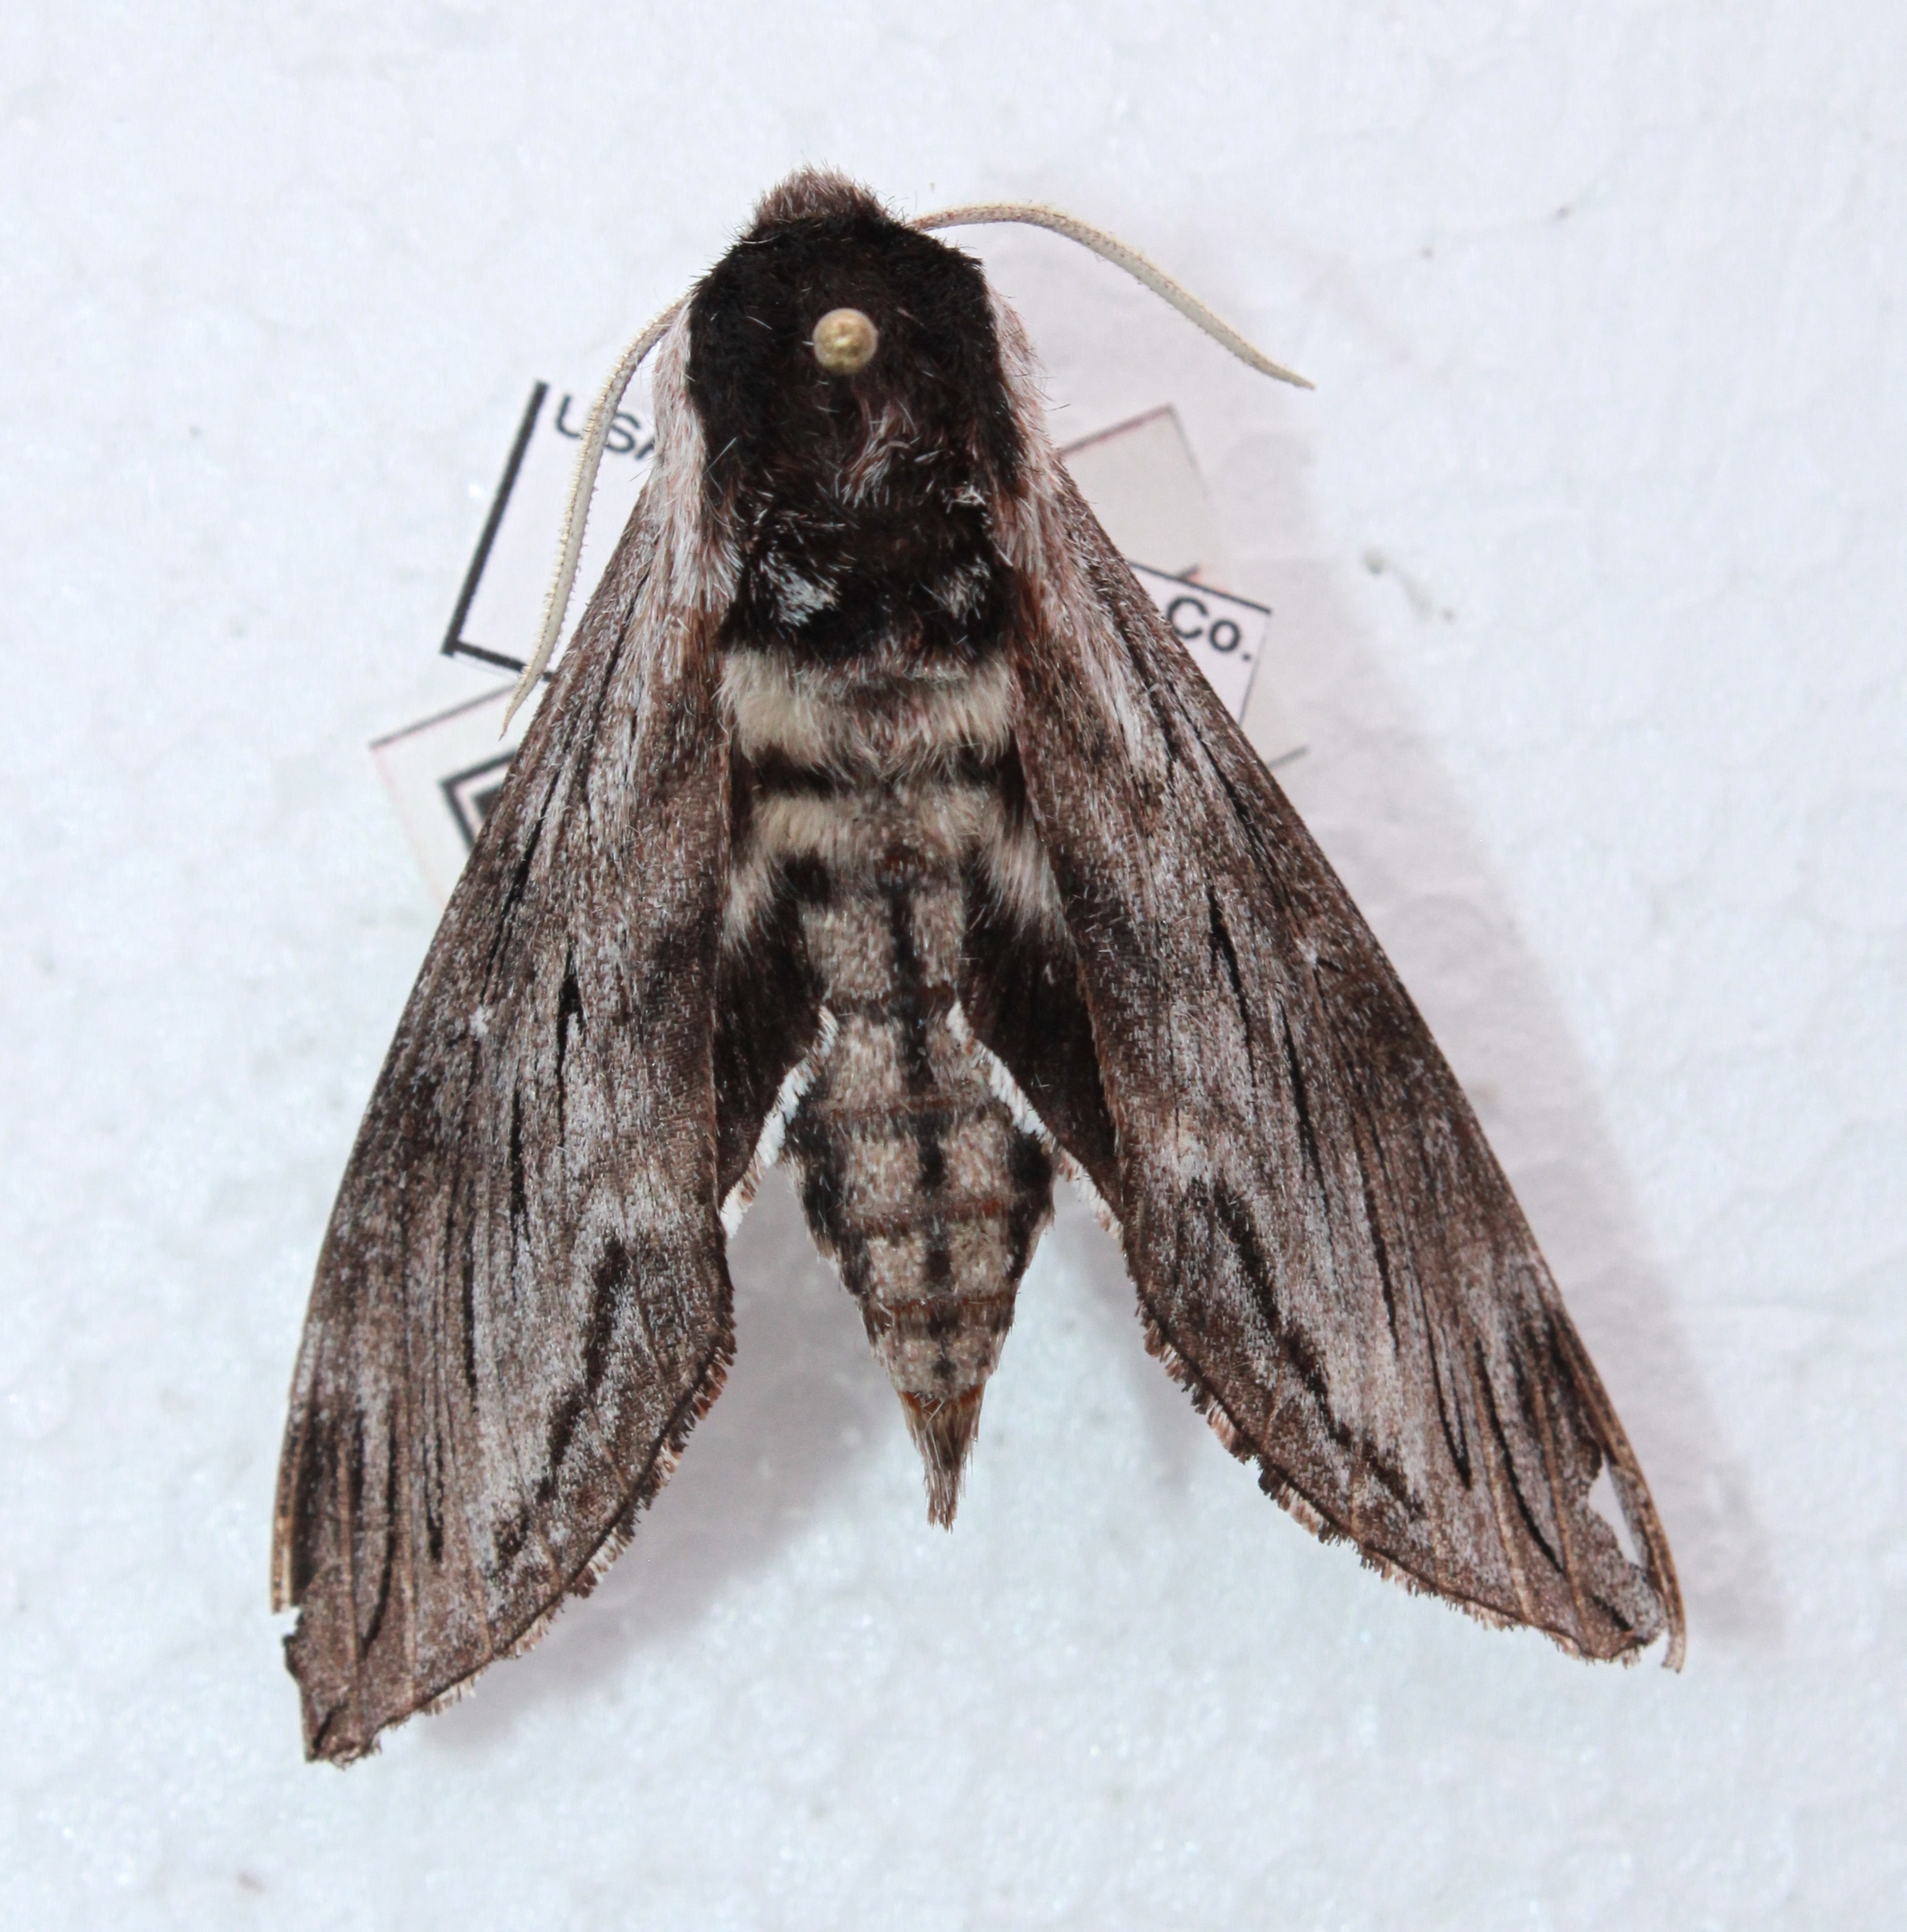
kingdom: Animalia
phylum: Arthropoda
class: Insecta
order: Lepidoptera
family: Sphingidae
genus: Sphinx
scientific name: Sphinx poecila
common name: Northern apple sphinx
